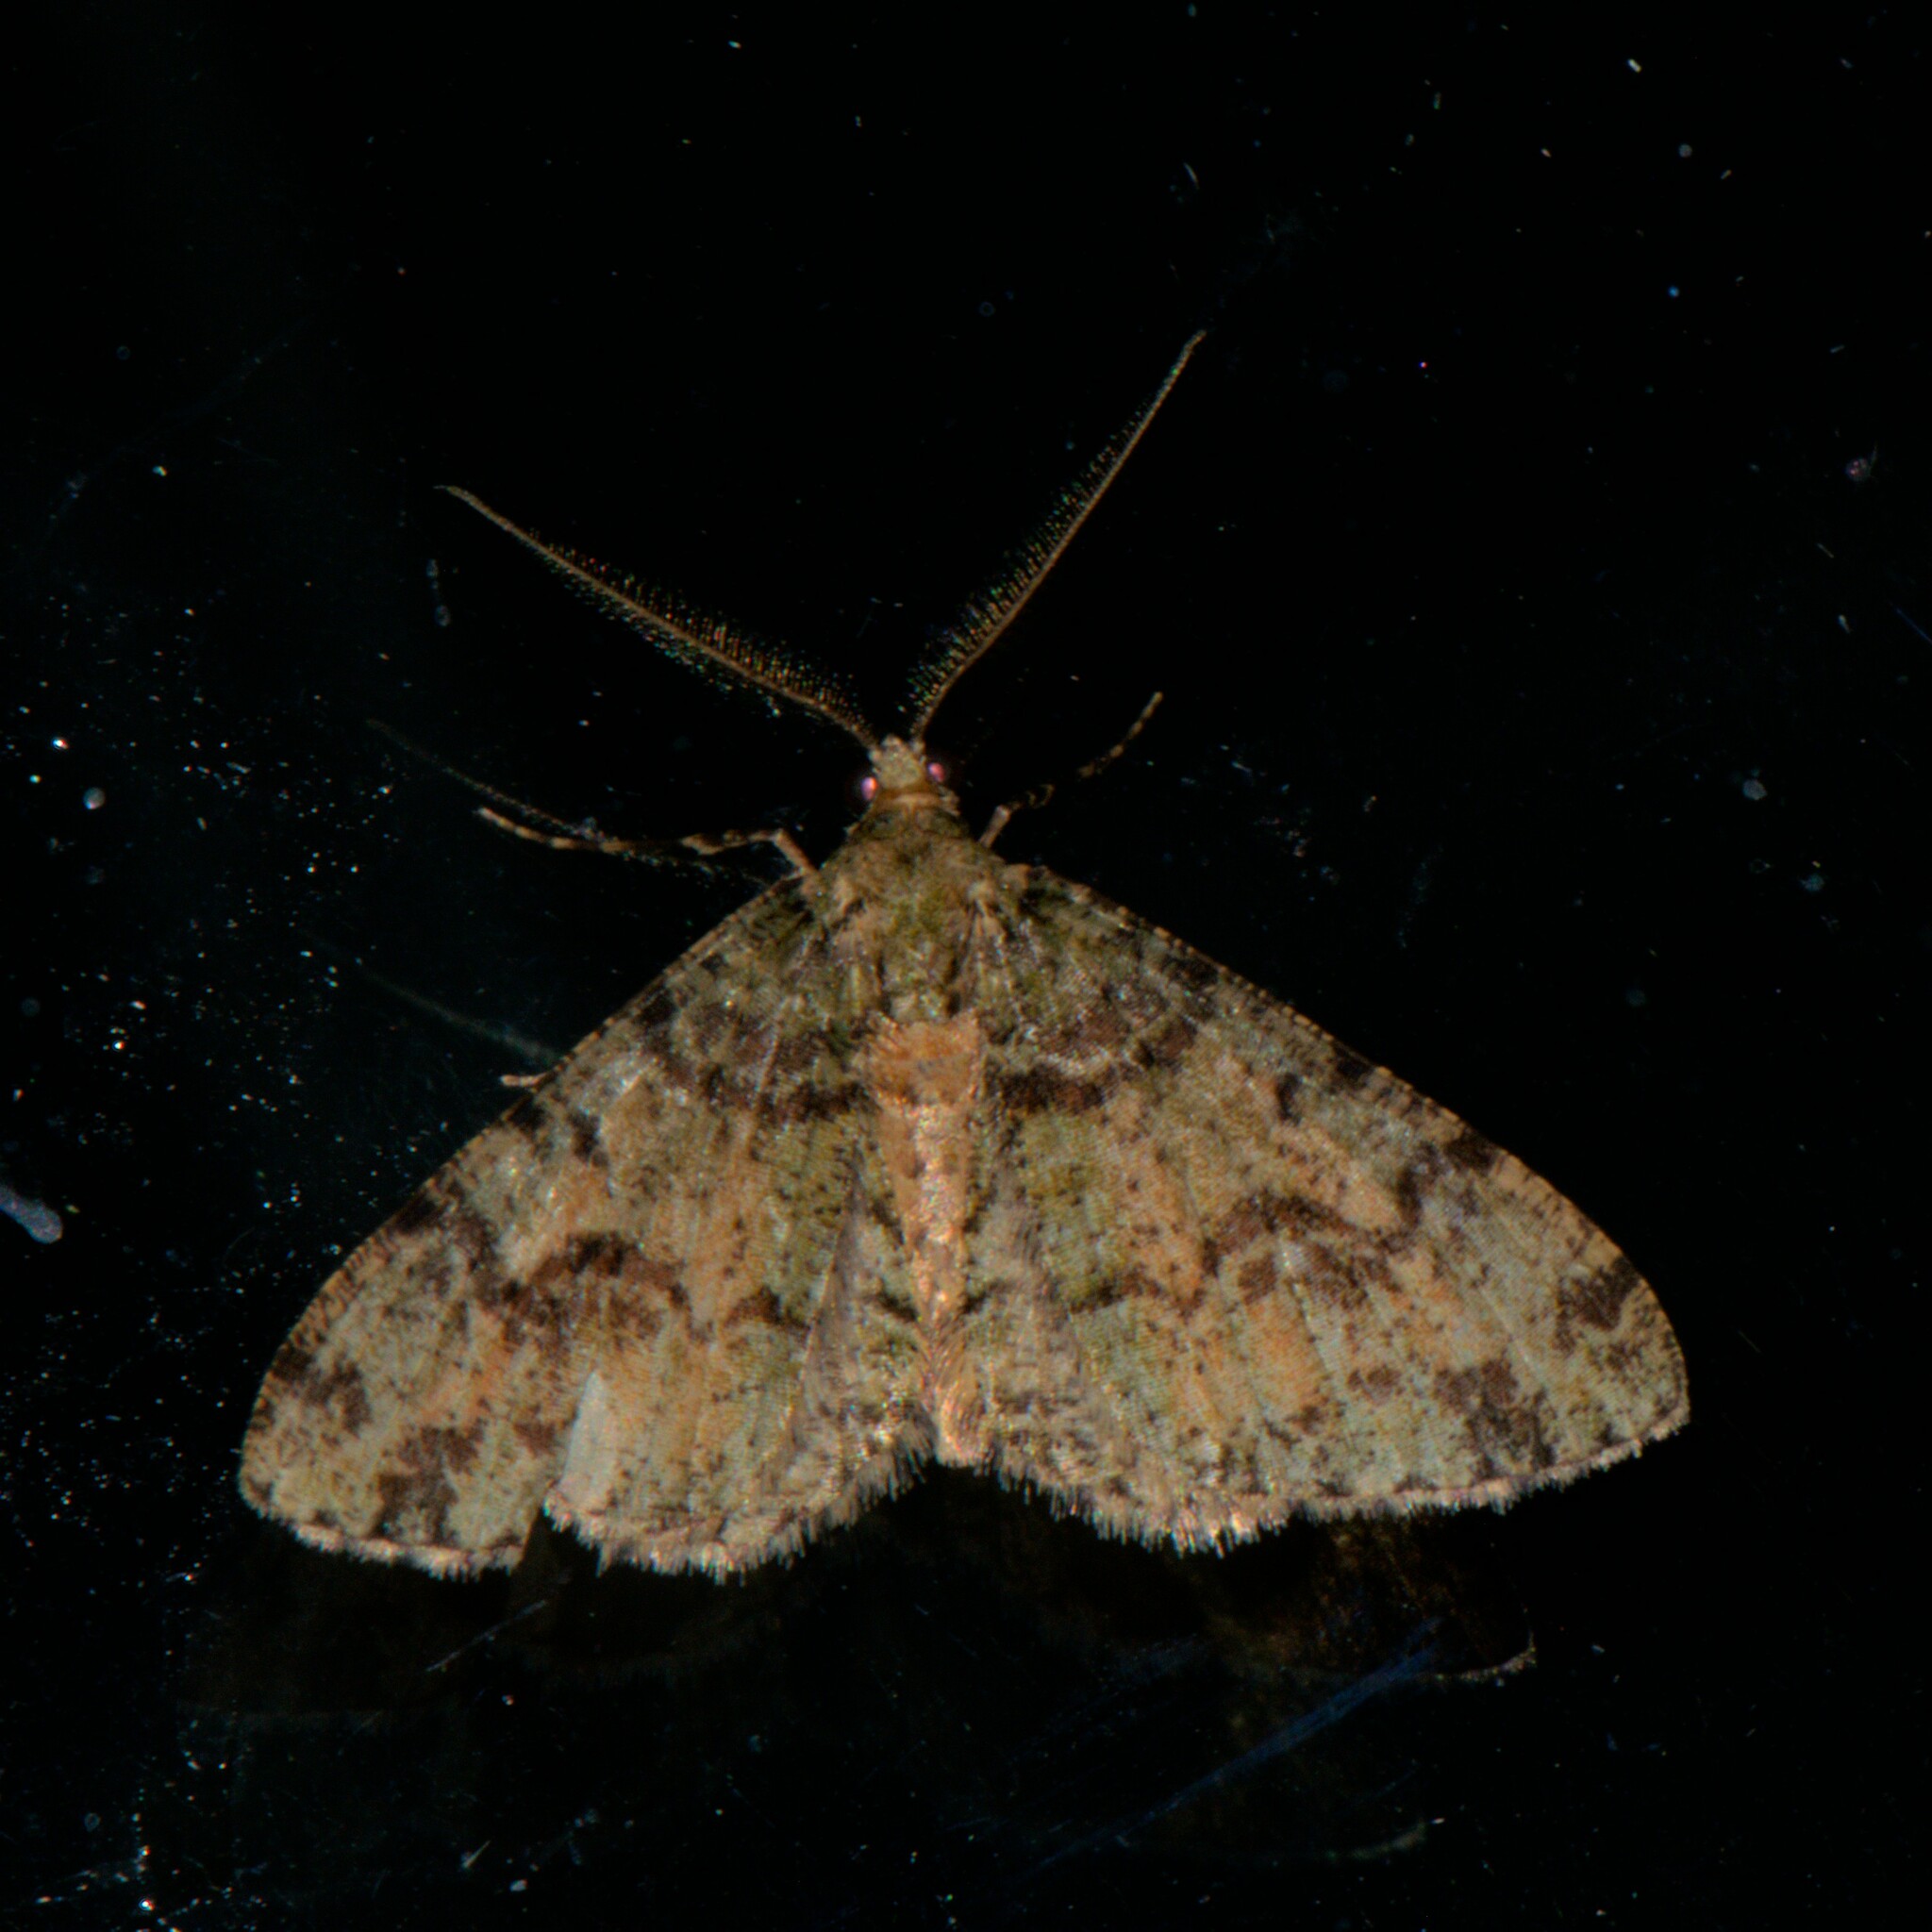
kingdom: Animalia
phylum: Arthropoda
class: Insecta
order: Lepidoptera
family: Geometridae
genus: Myrioblephara
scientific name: Myrioblephara duplexa
